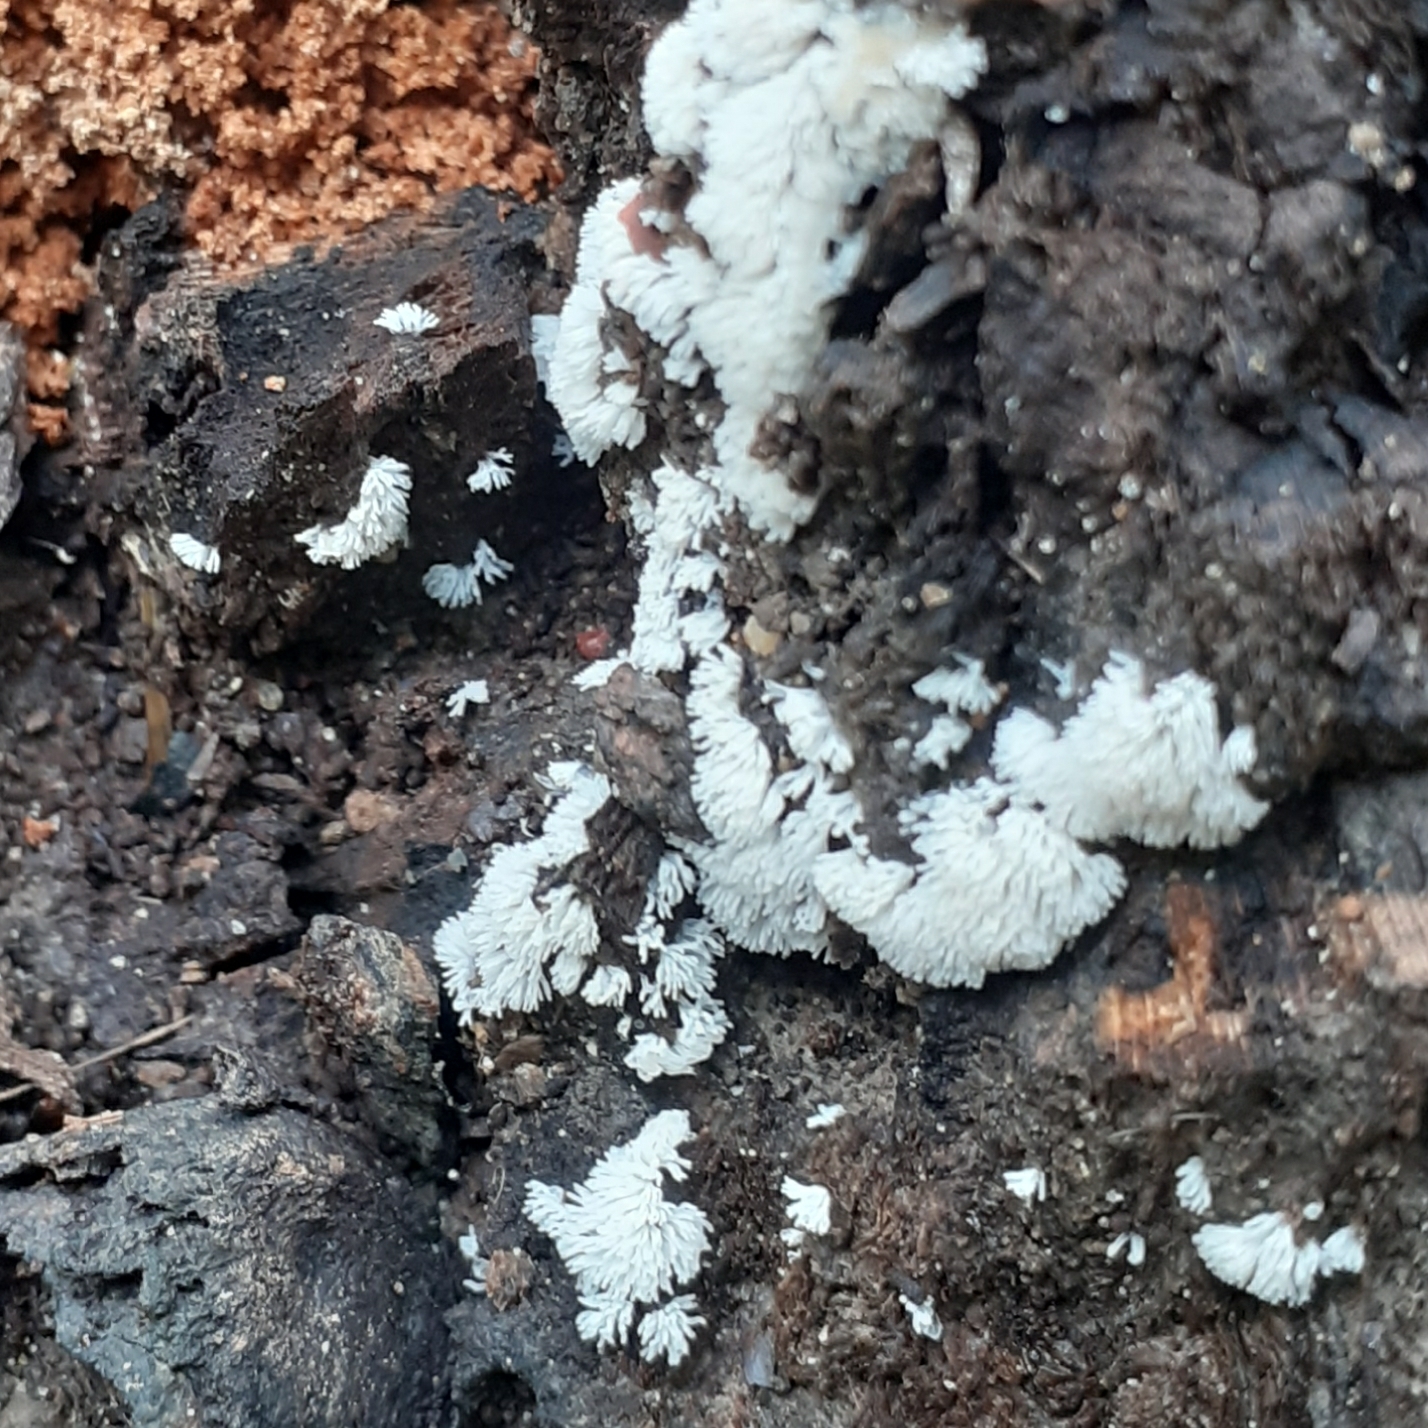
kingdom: Protozoa
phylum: Mycetozoa
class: Protosteliomycetes
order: Ceratiomyxales
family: Ceratiomyxaceae
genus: Ceratiomyxa
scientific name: Ceratiomyxa fruticulosa
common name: Honeycomb coral slime mold
